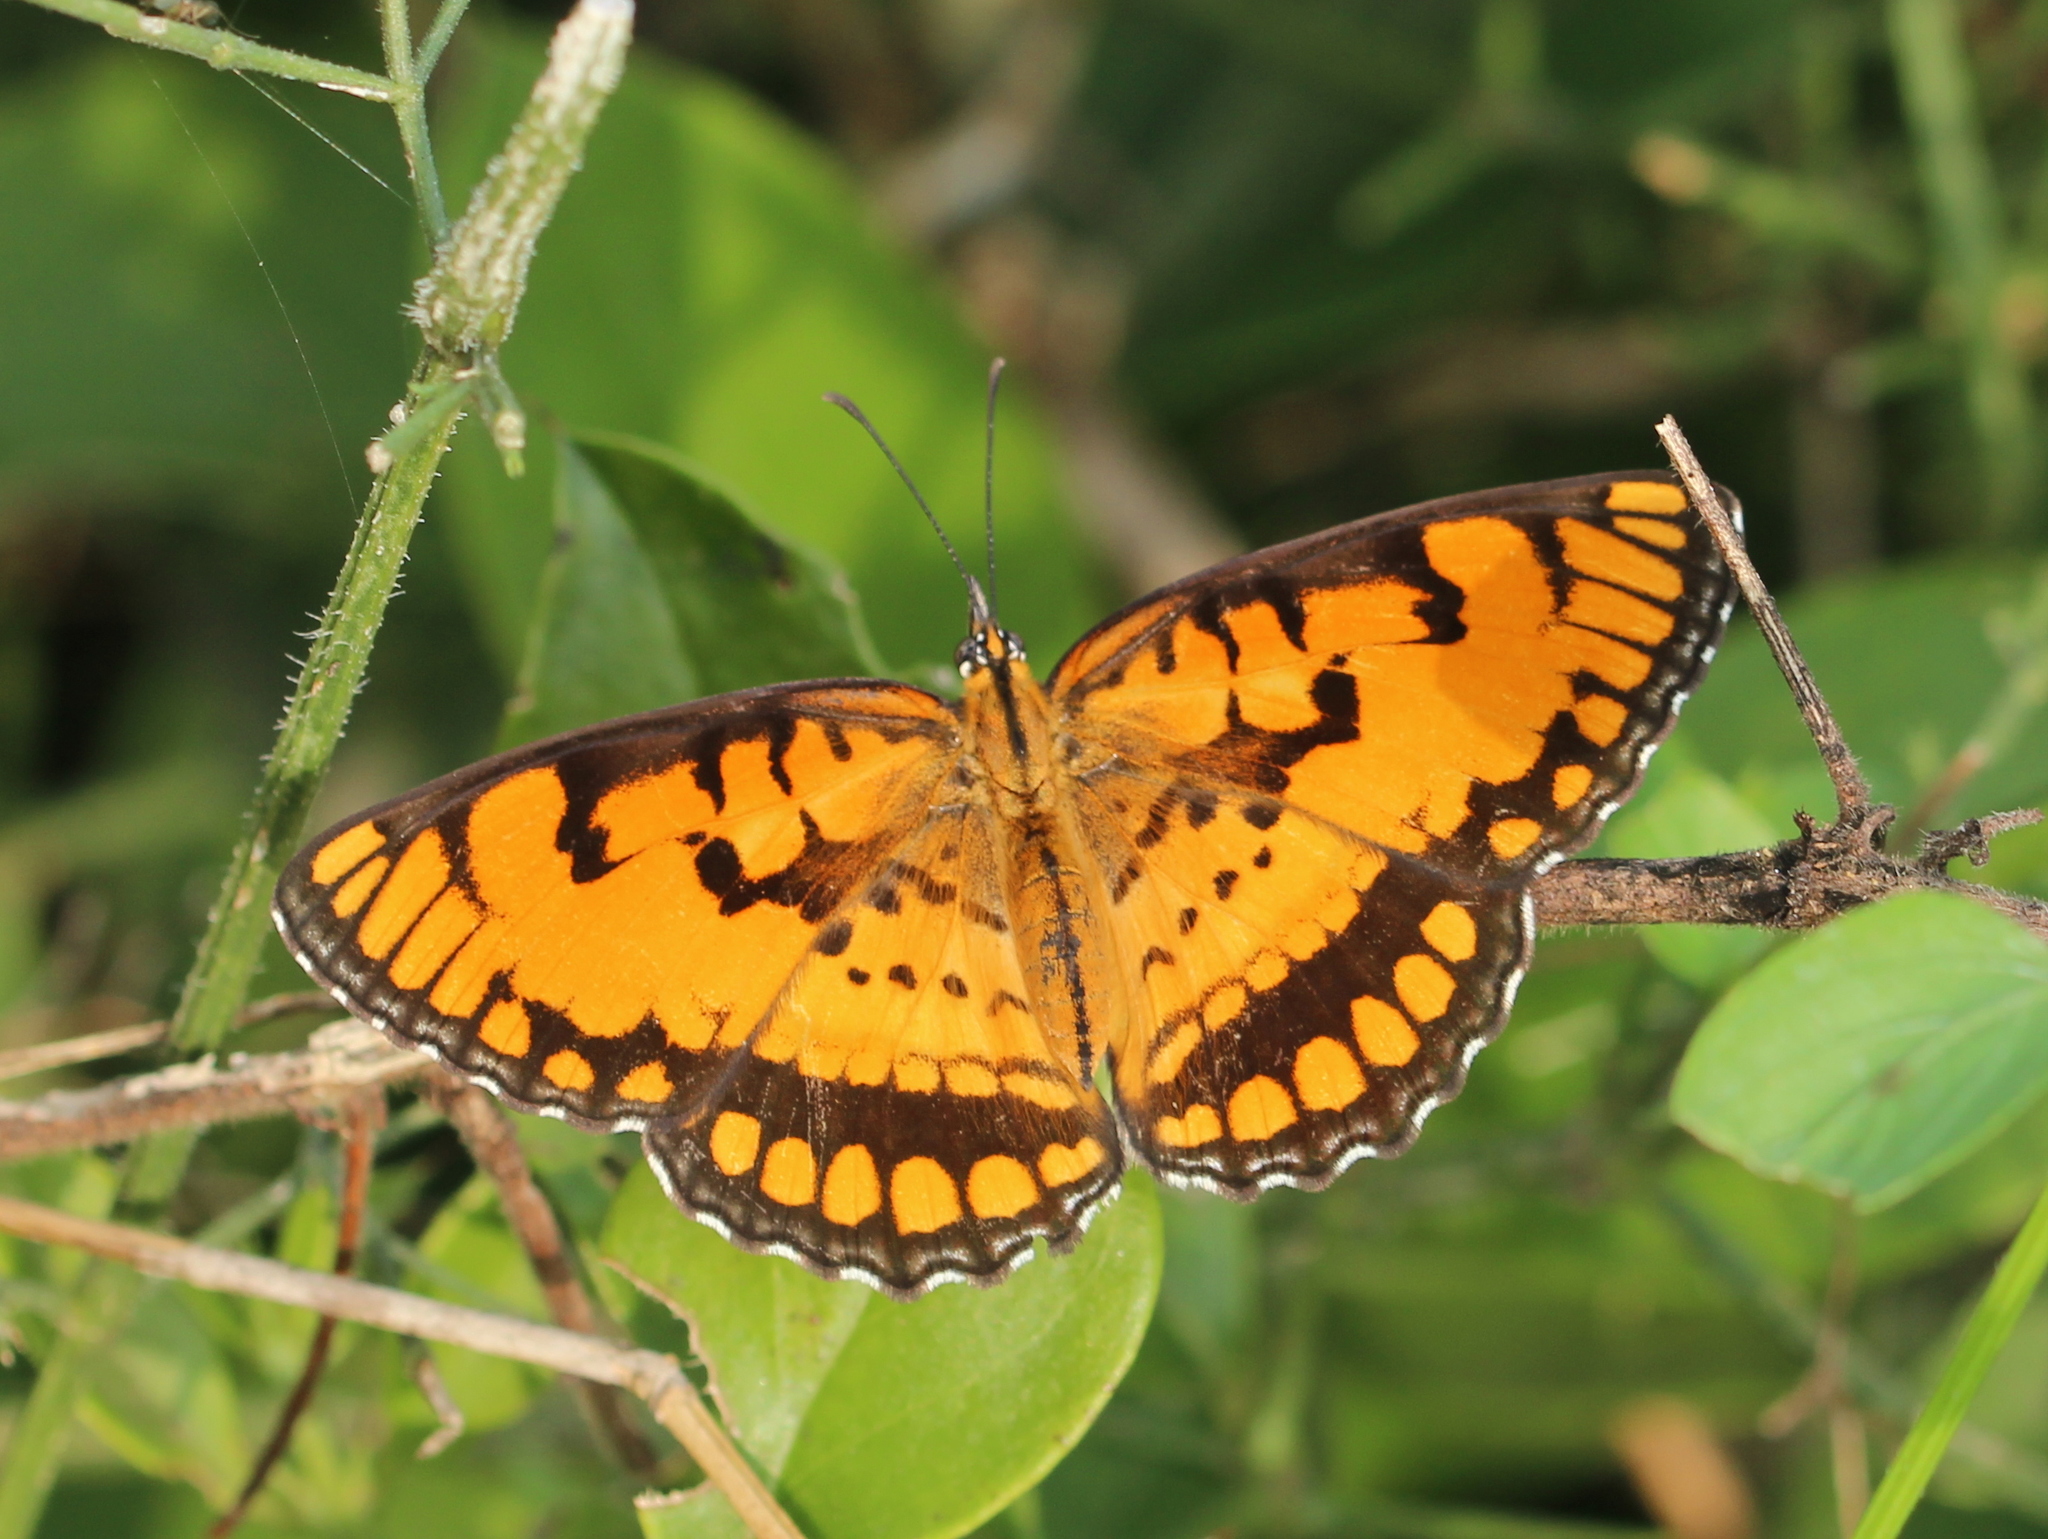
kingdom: Animalia
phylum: Arthropoda
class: Insecta
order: Lepidoptera
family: Nymphalidae
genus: Byblia
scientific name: Byblia ilithyia
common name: Spotted joker
